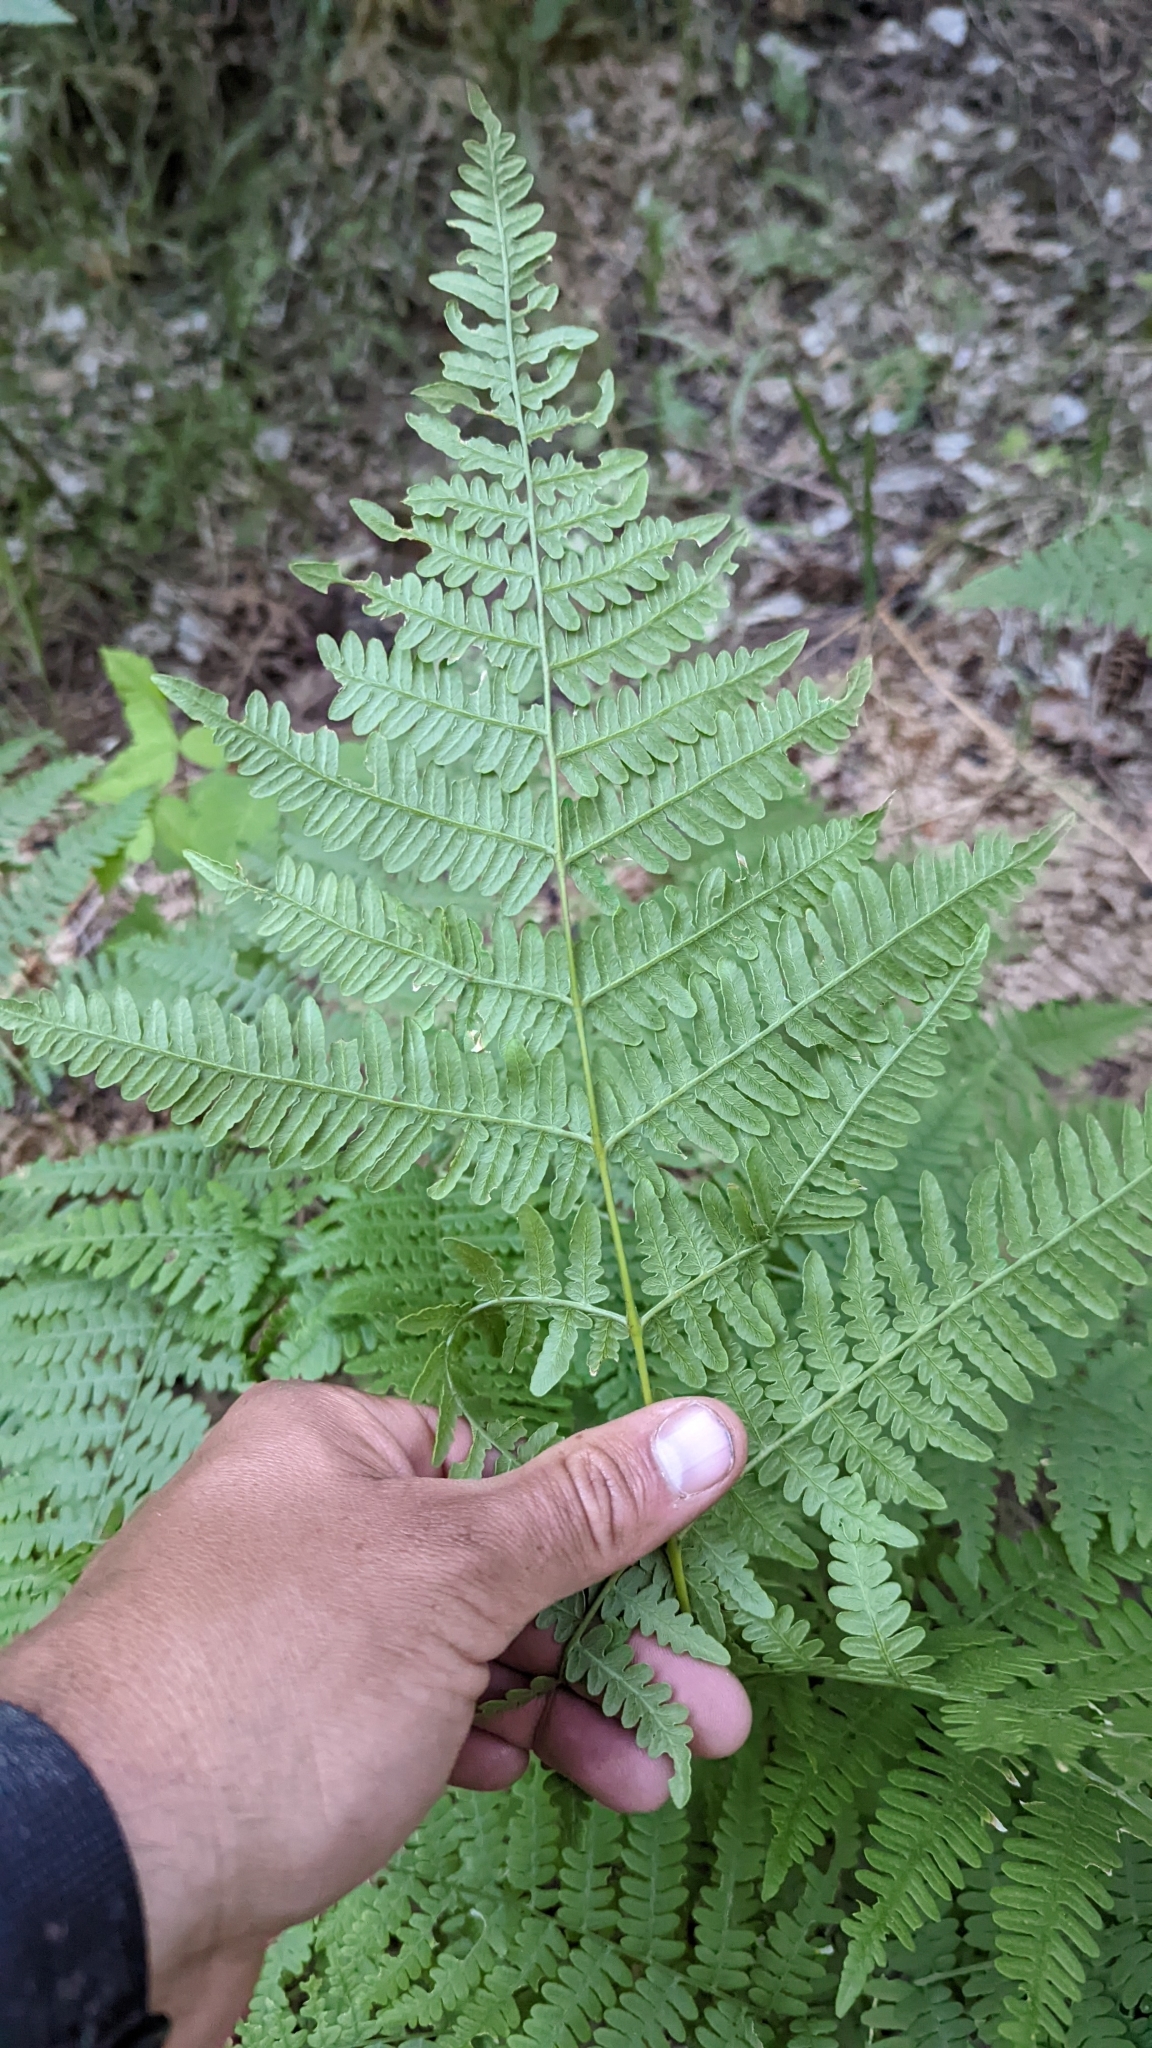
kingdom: Plantae
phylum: Tracheophyta
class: Polypodiopsida
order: Polypodiales
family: Dennstaedtiaceae
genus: Pteridium
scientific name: Pteridium aquilinum
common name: Bracken
